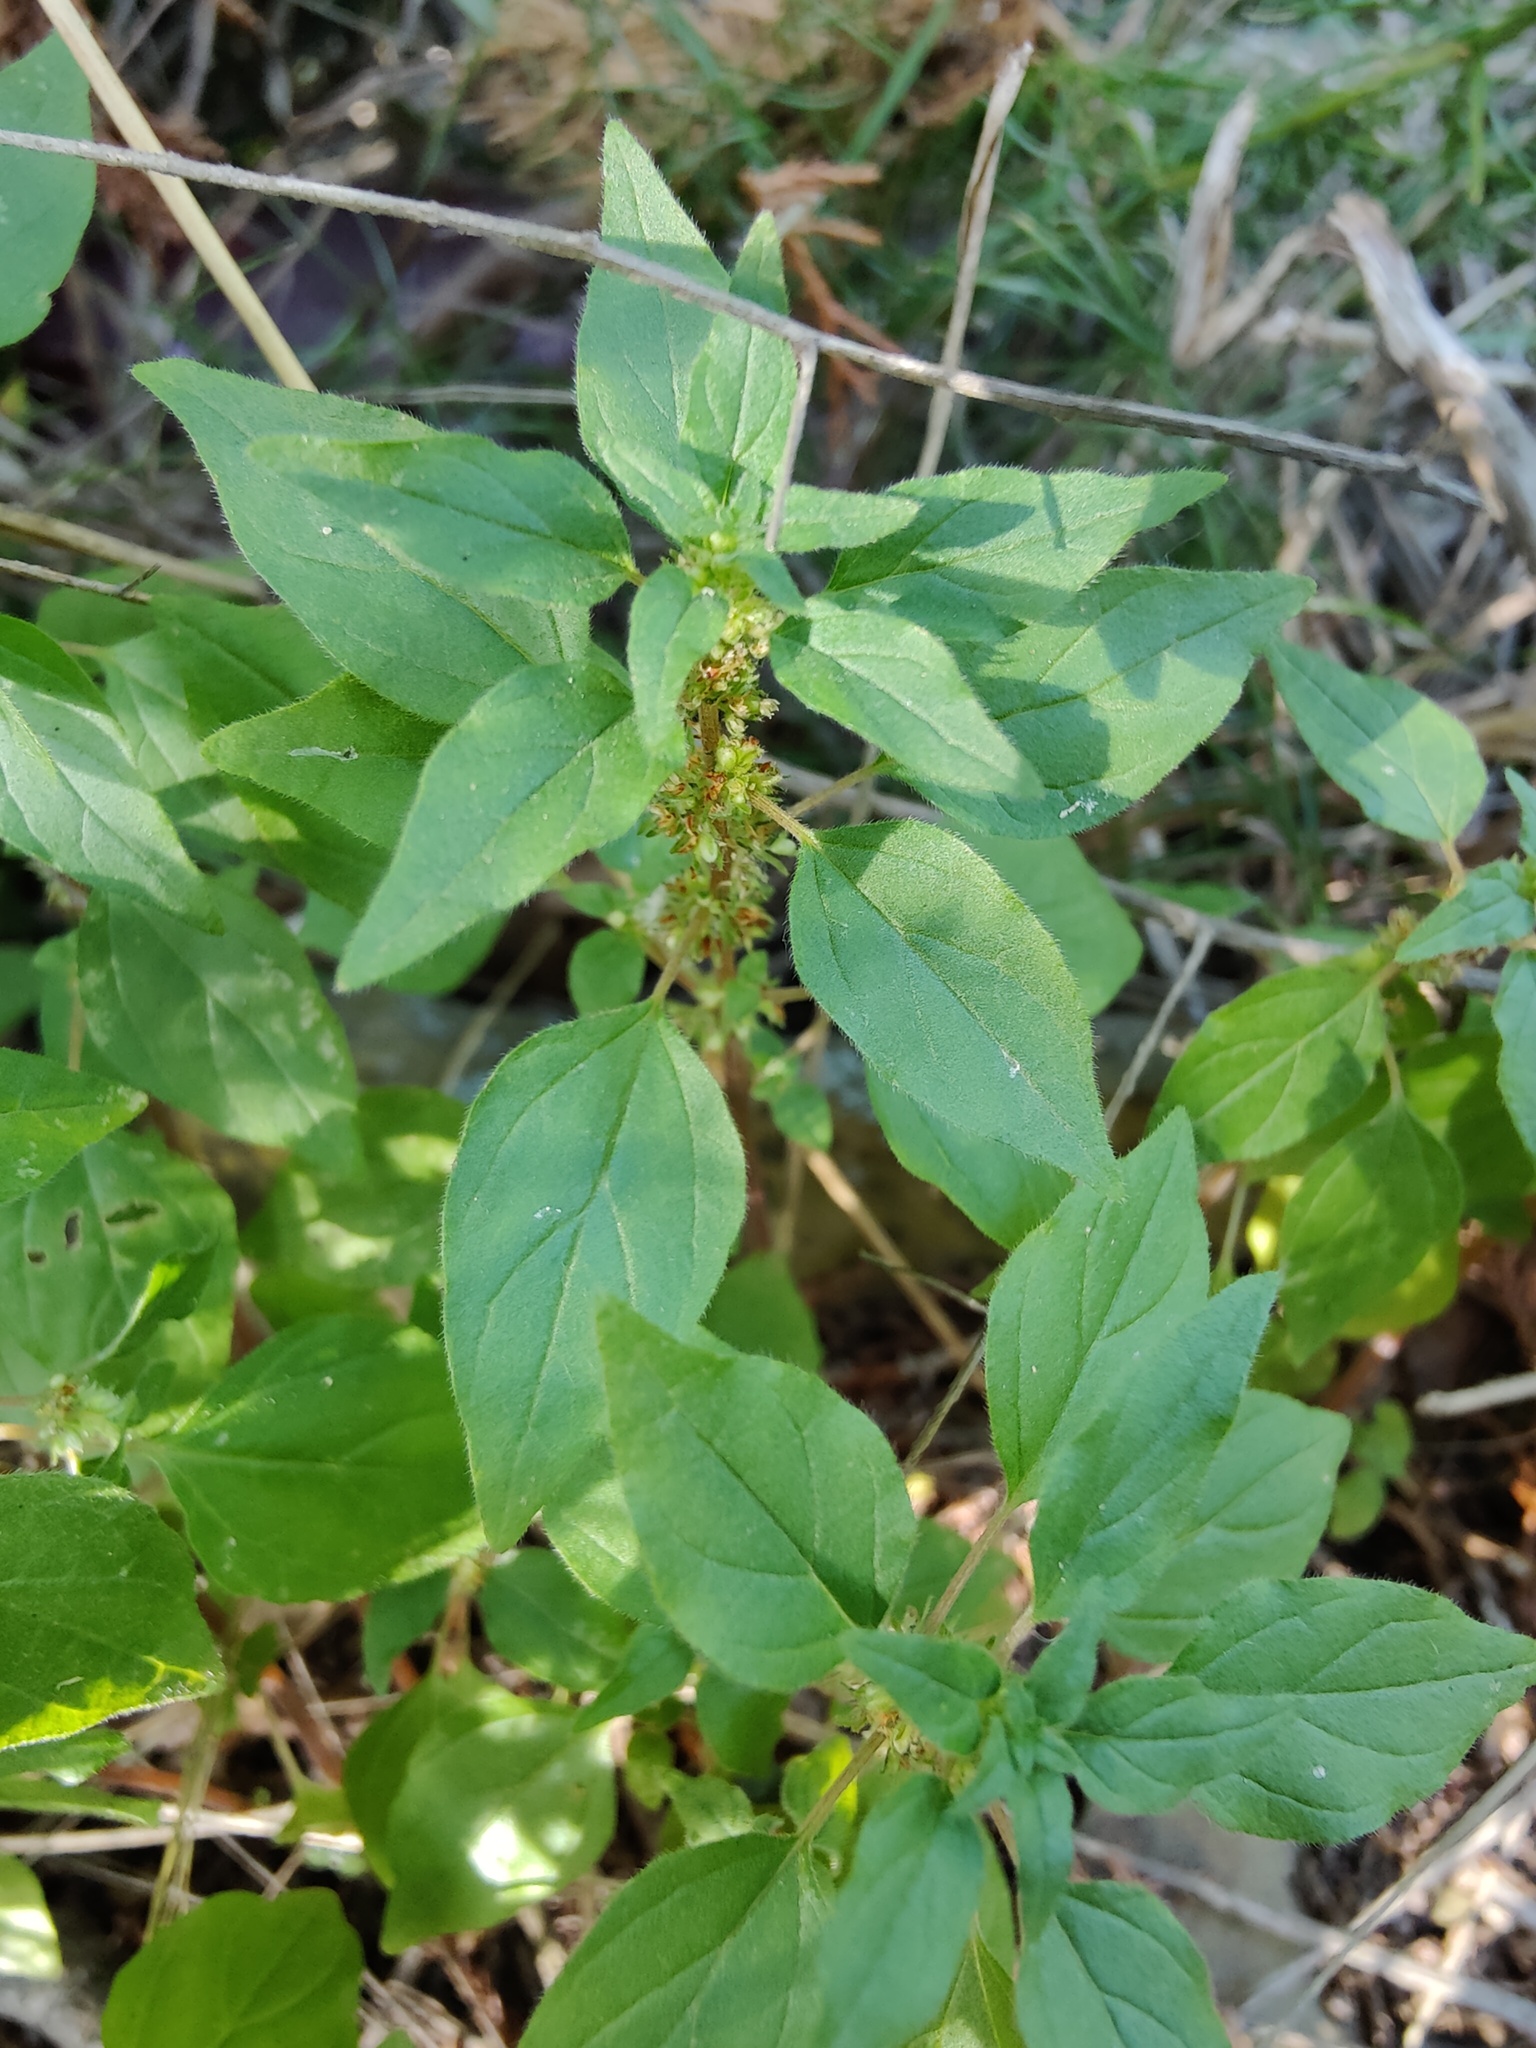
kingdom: Plantae
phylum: Tracheophyta
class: Magnoliopsida
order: Rosales
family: Urticaceae
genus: Parietaria
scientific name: Parietaria lusitanica
